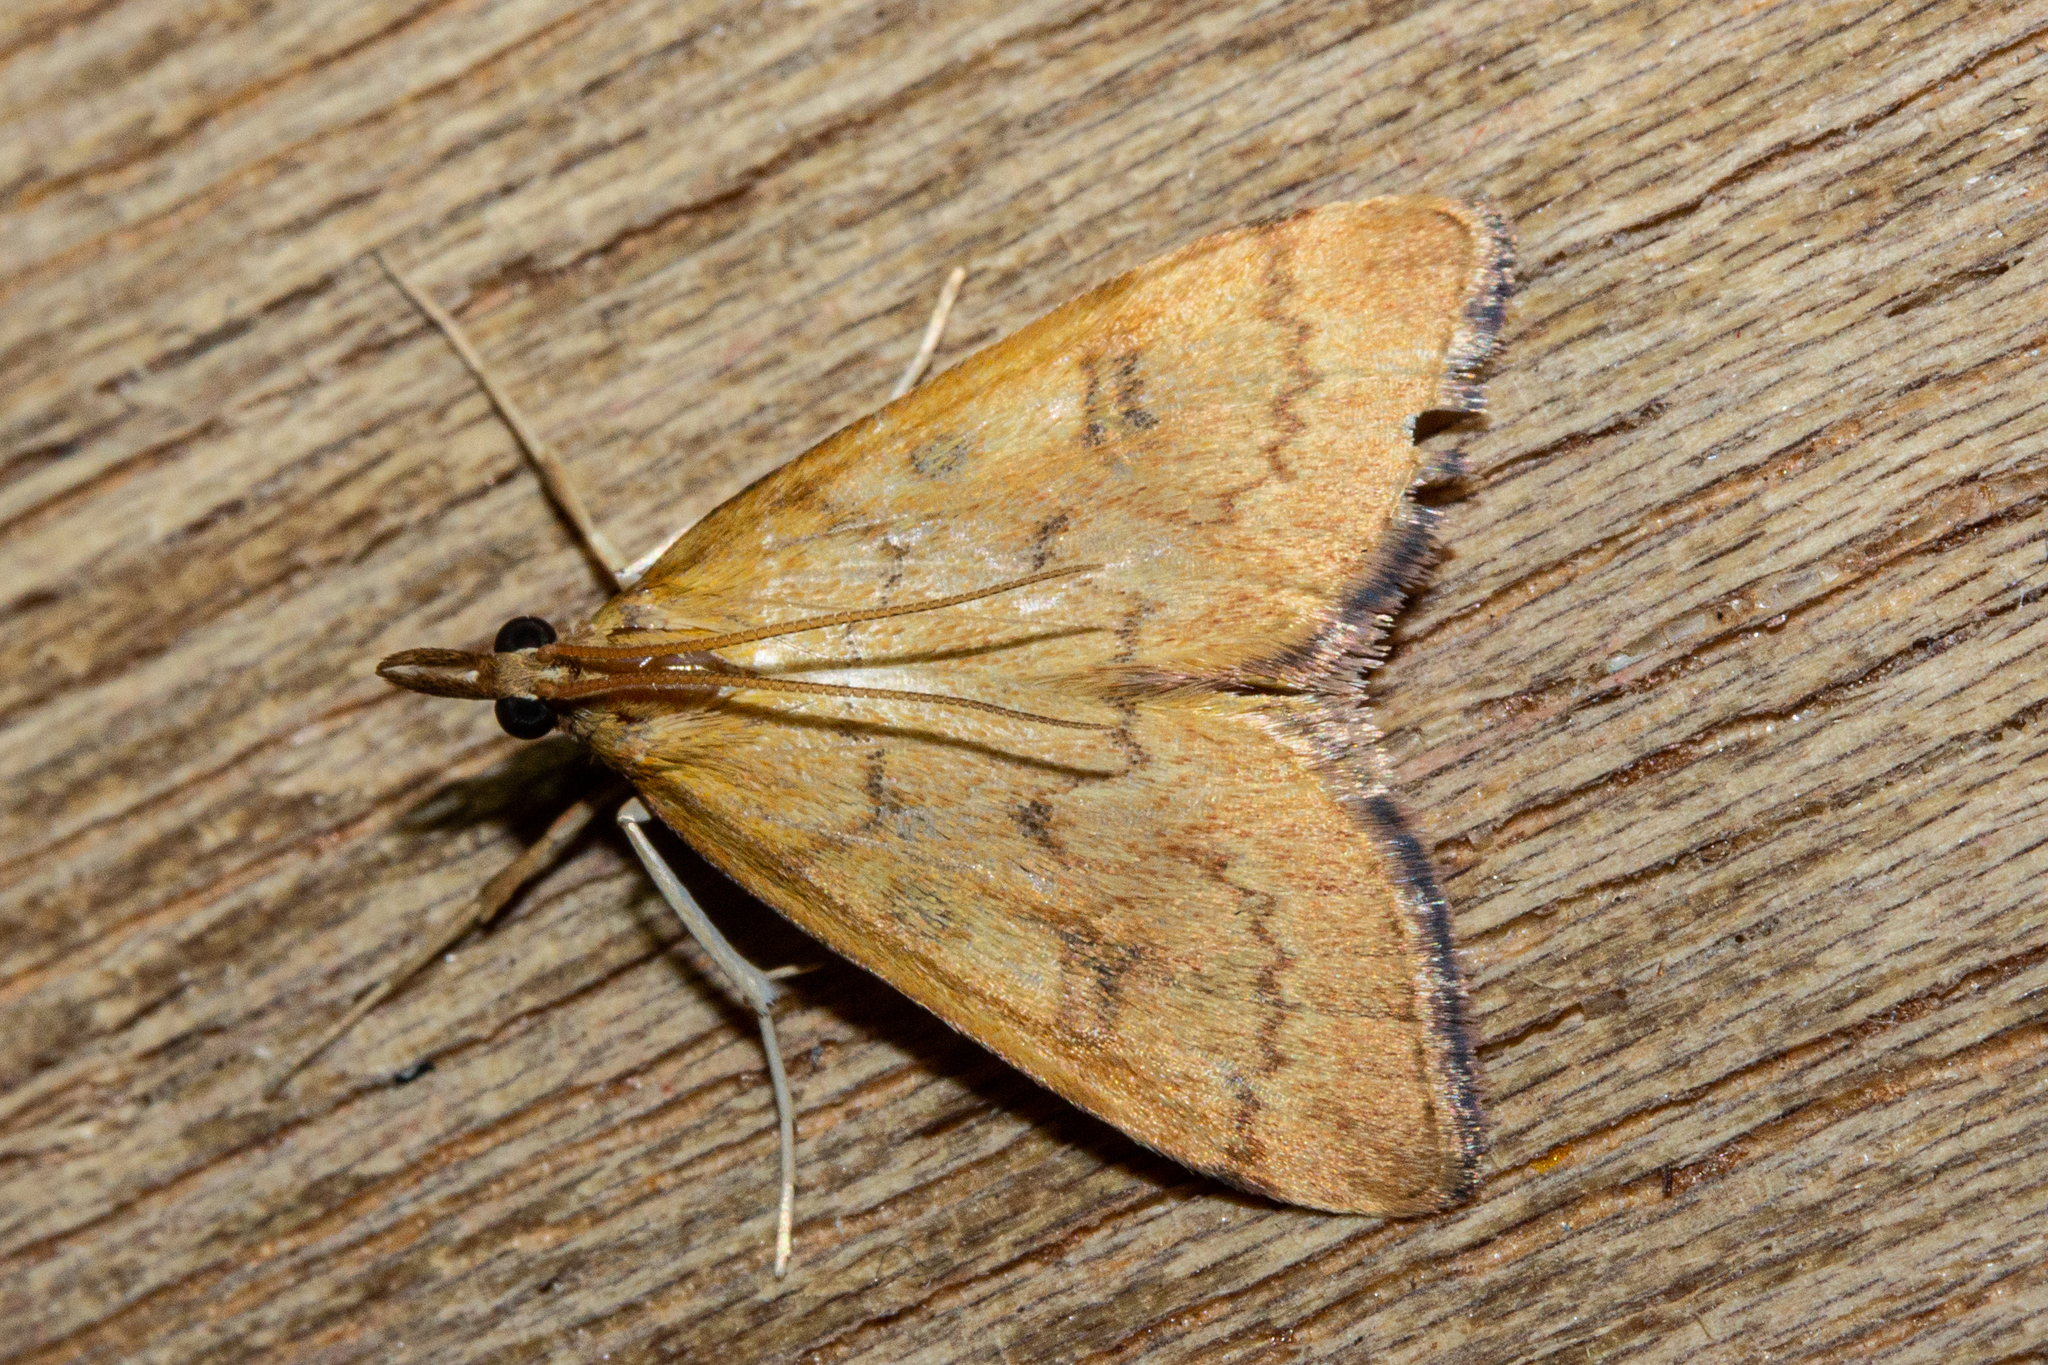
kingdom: Animalia
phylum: Arthropoda
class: Insecta
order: Lepidoptera
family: Crambidae
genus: Udea
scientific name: Udea Mnesictena flavidalis
